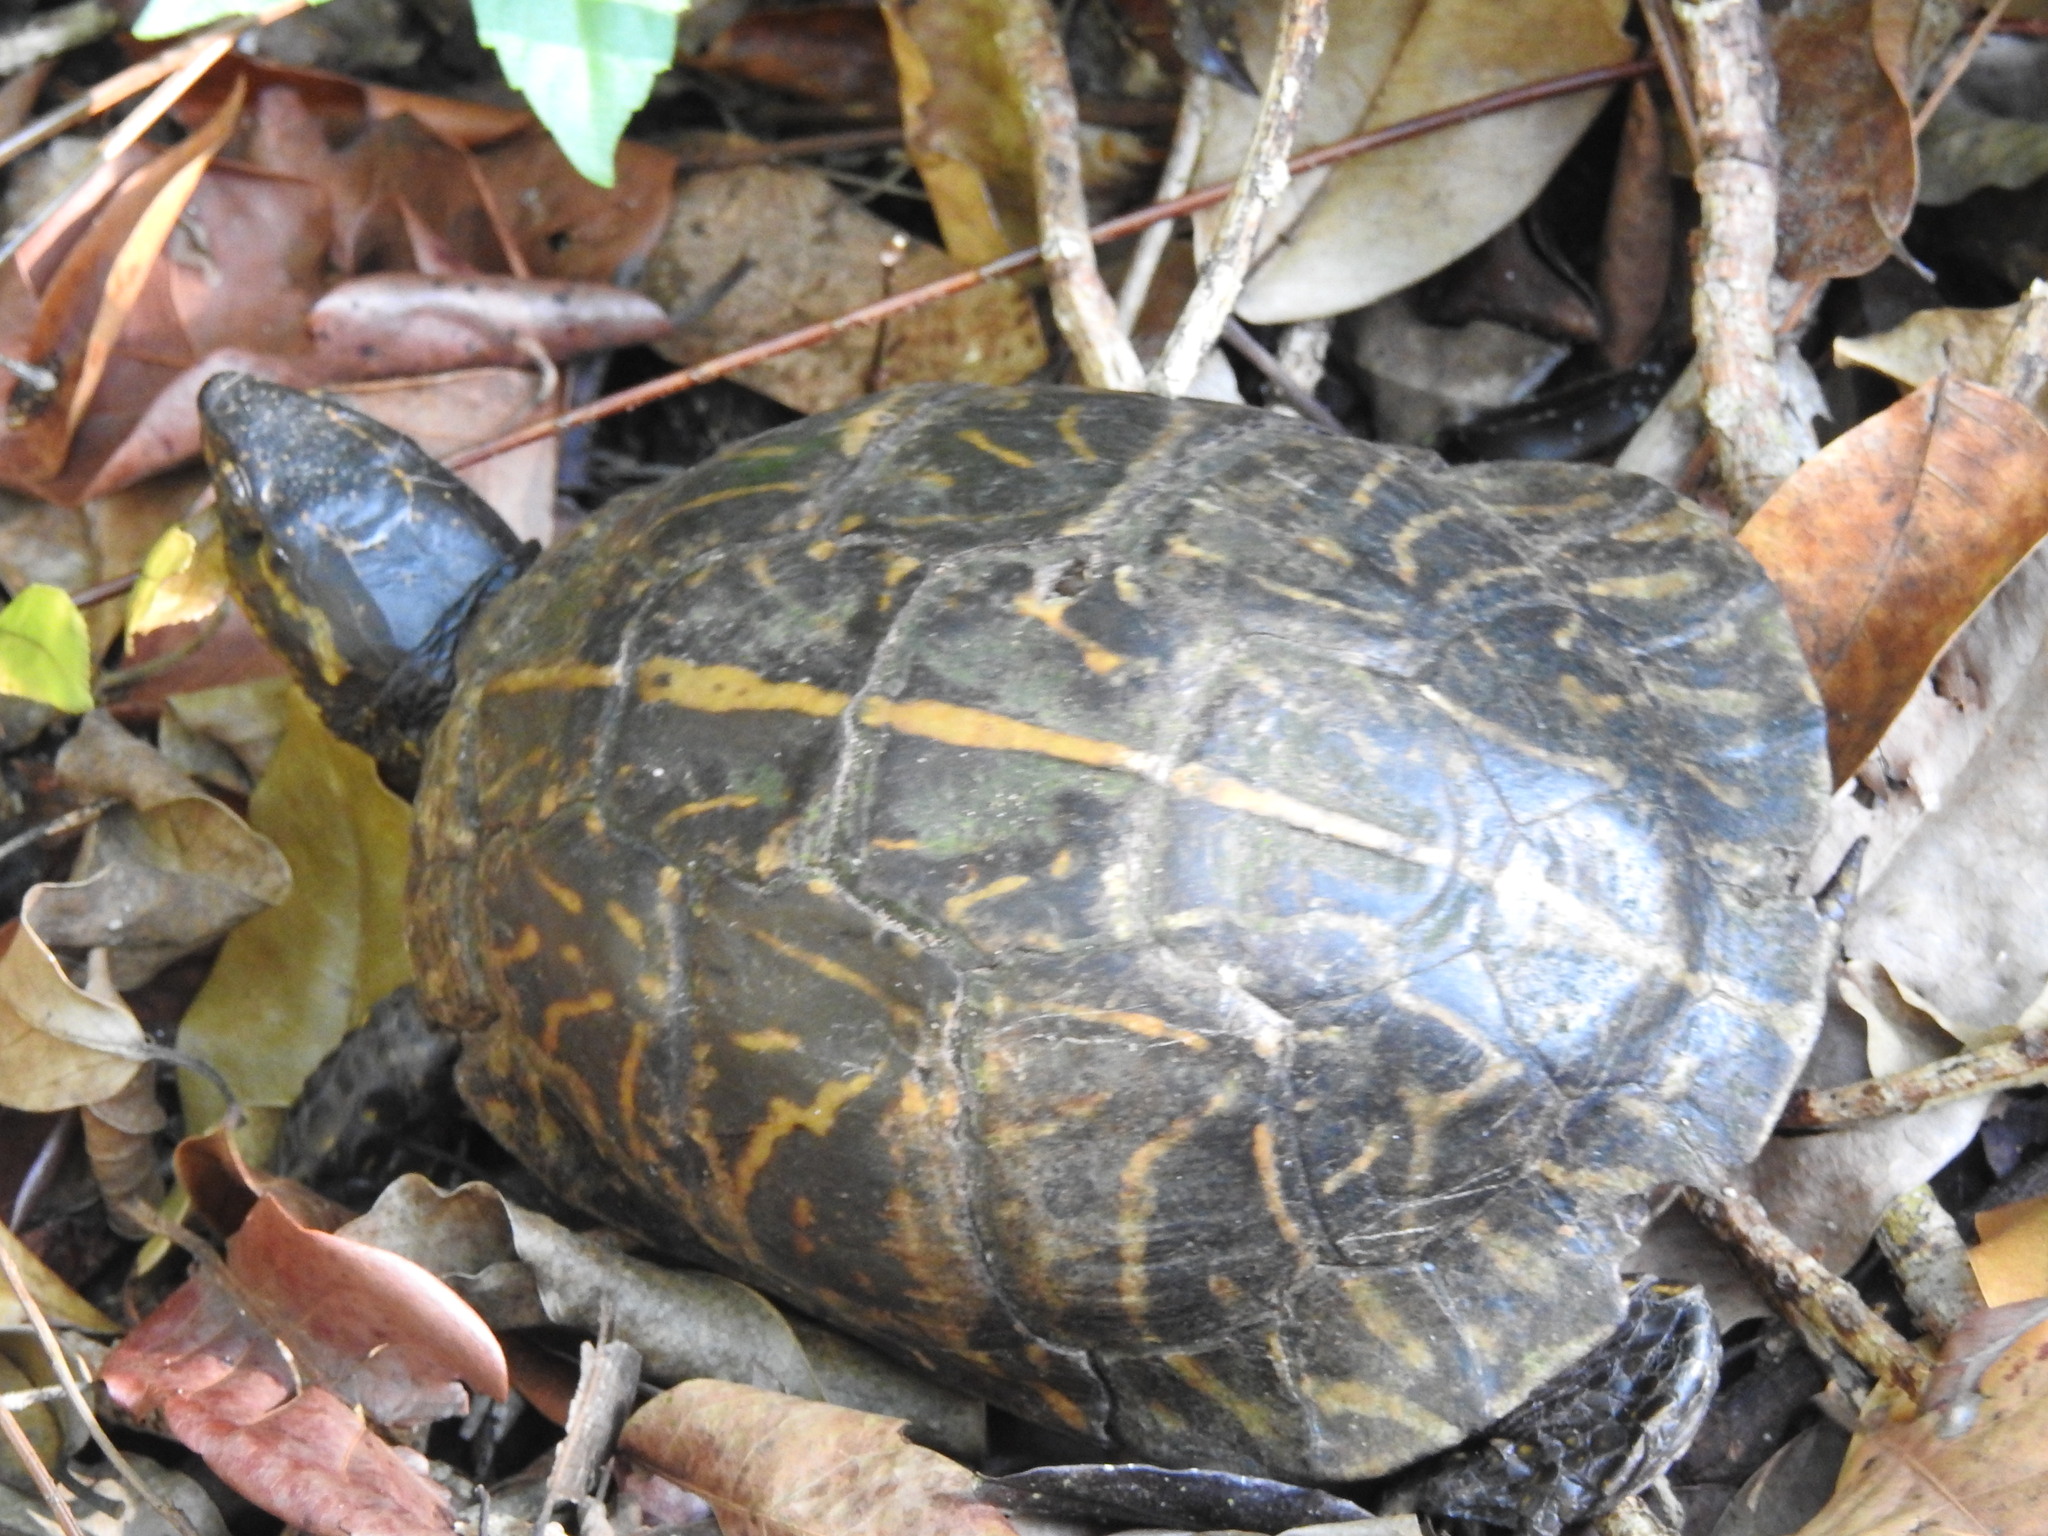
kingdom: Animalia
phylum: Chordata
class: Testudines
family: Emydidae
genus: Terrapene
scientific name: Terrapene carolina
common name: Common box turtle
